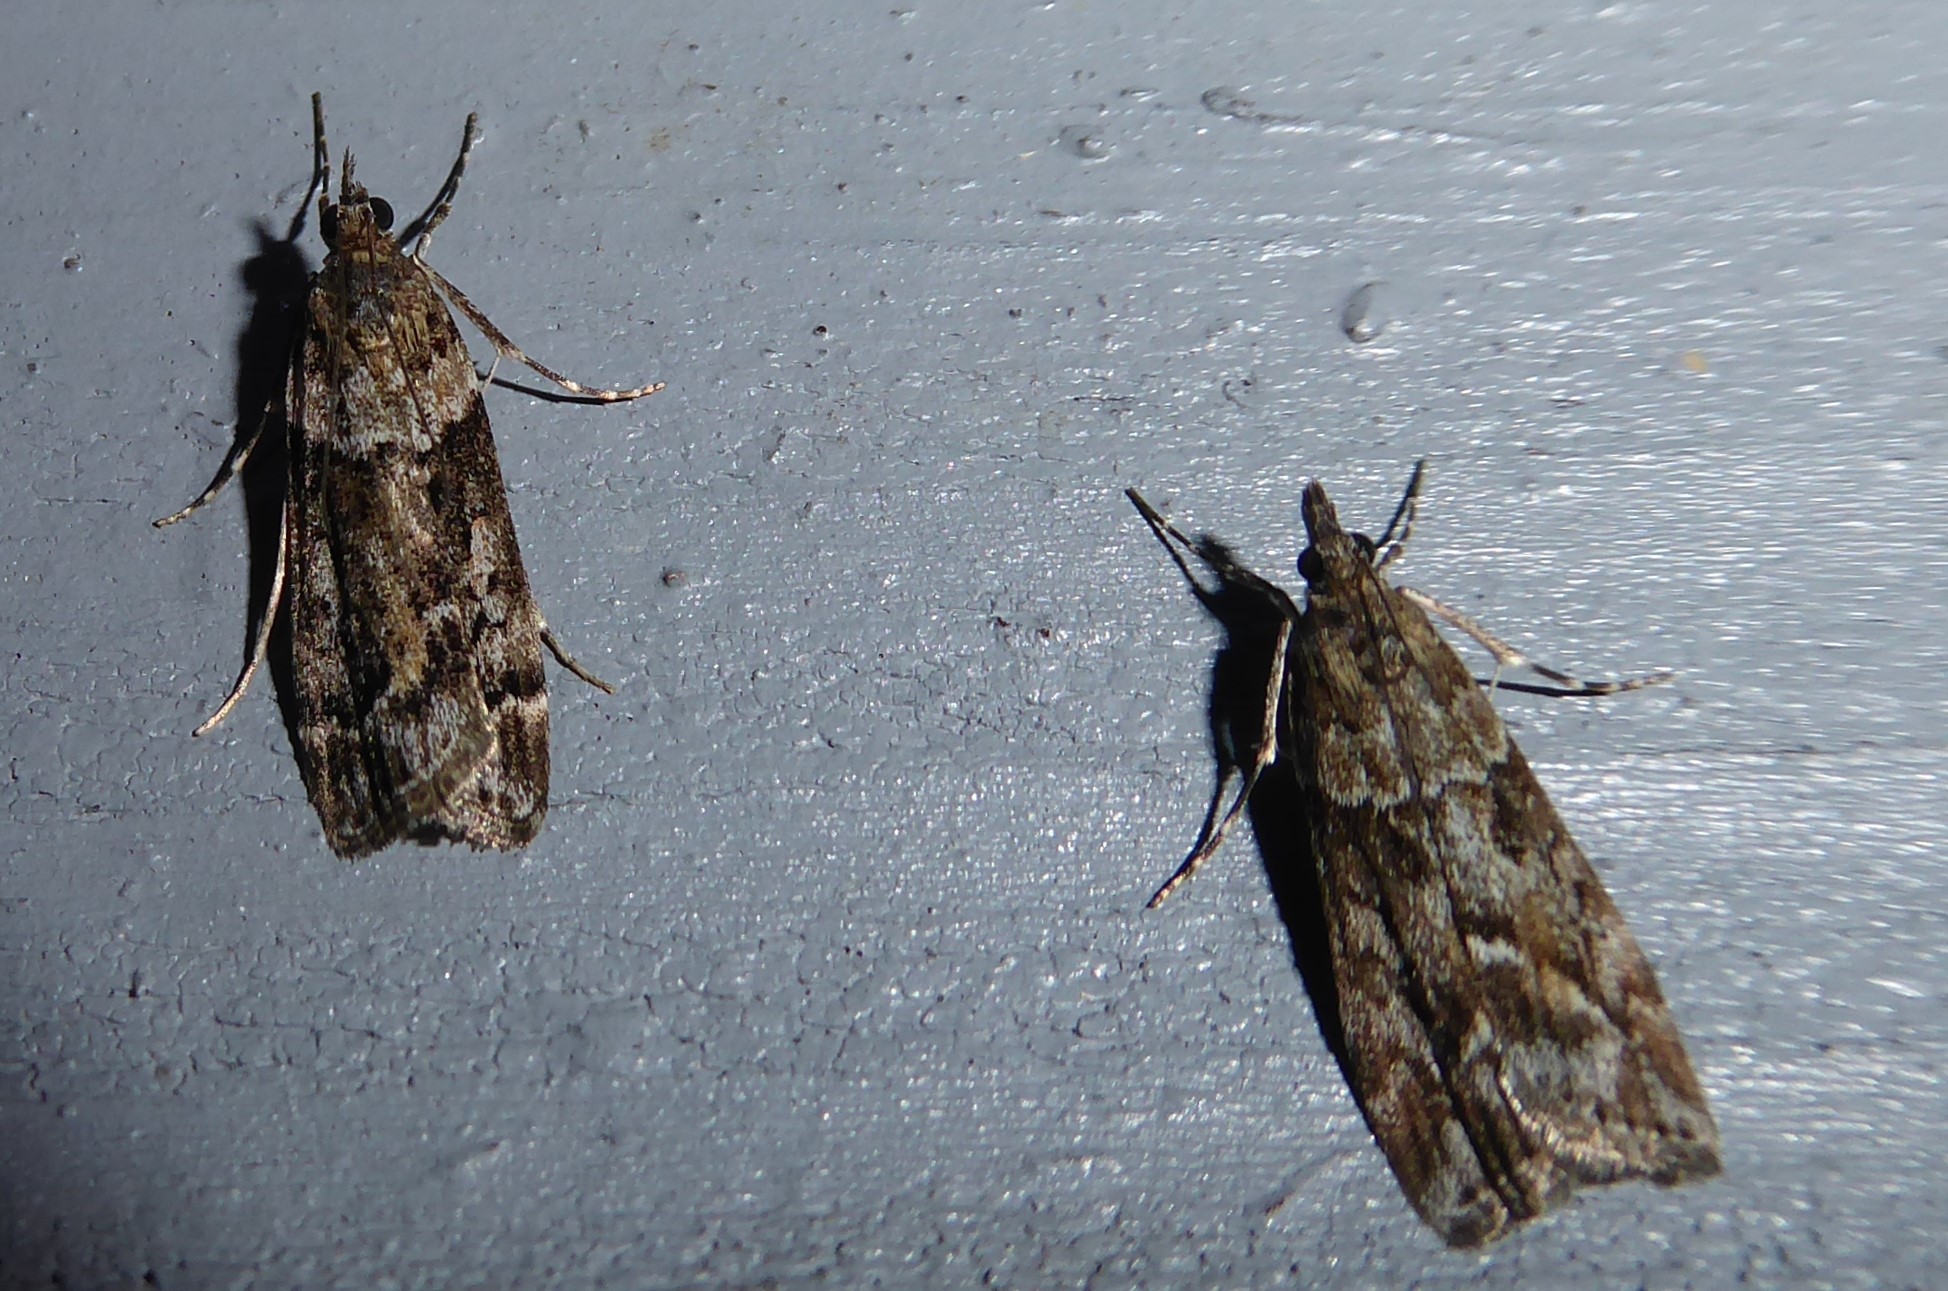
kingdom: Animalia
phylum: Arthropoda
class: Insecta
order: Lepidoptera
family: Crambidae
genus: Eudonia
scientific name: Eudonia submarginalis
